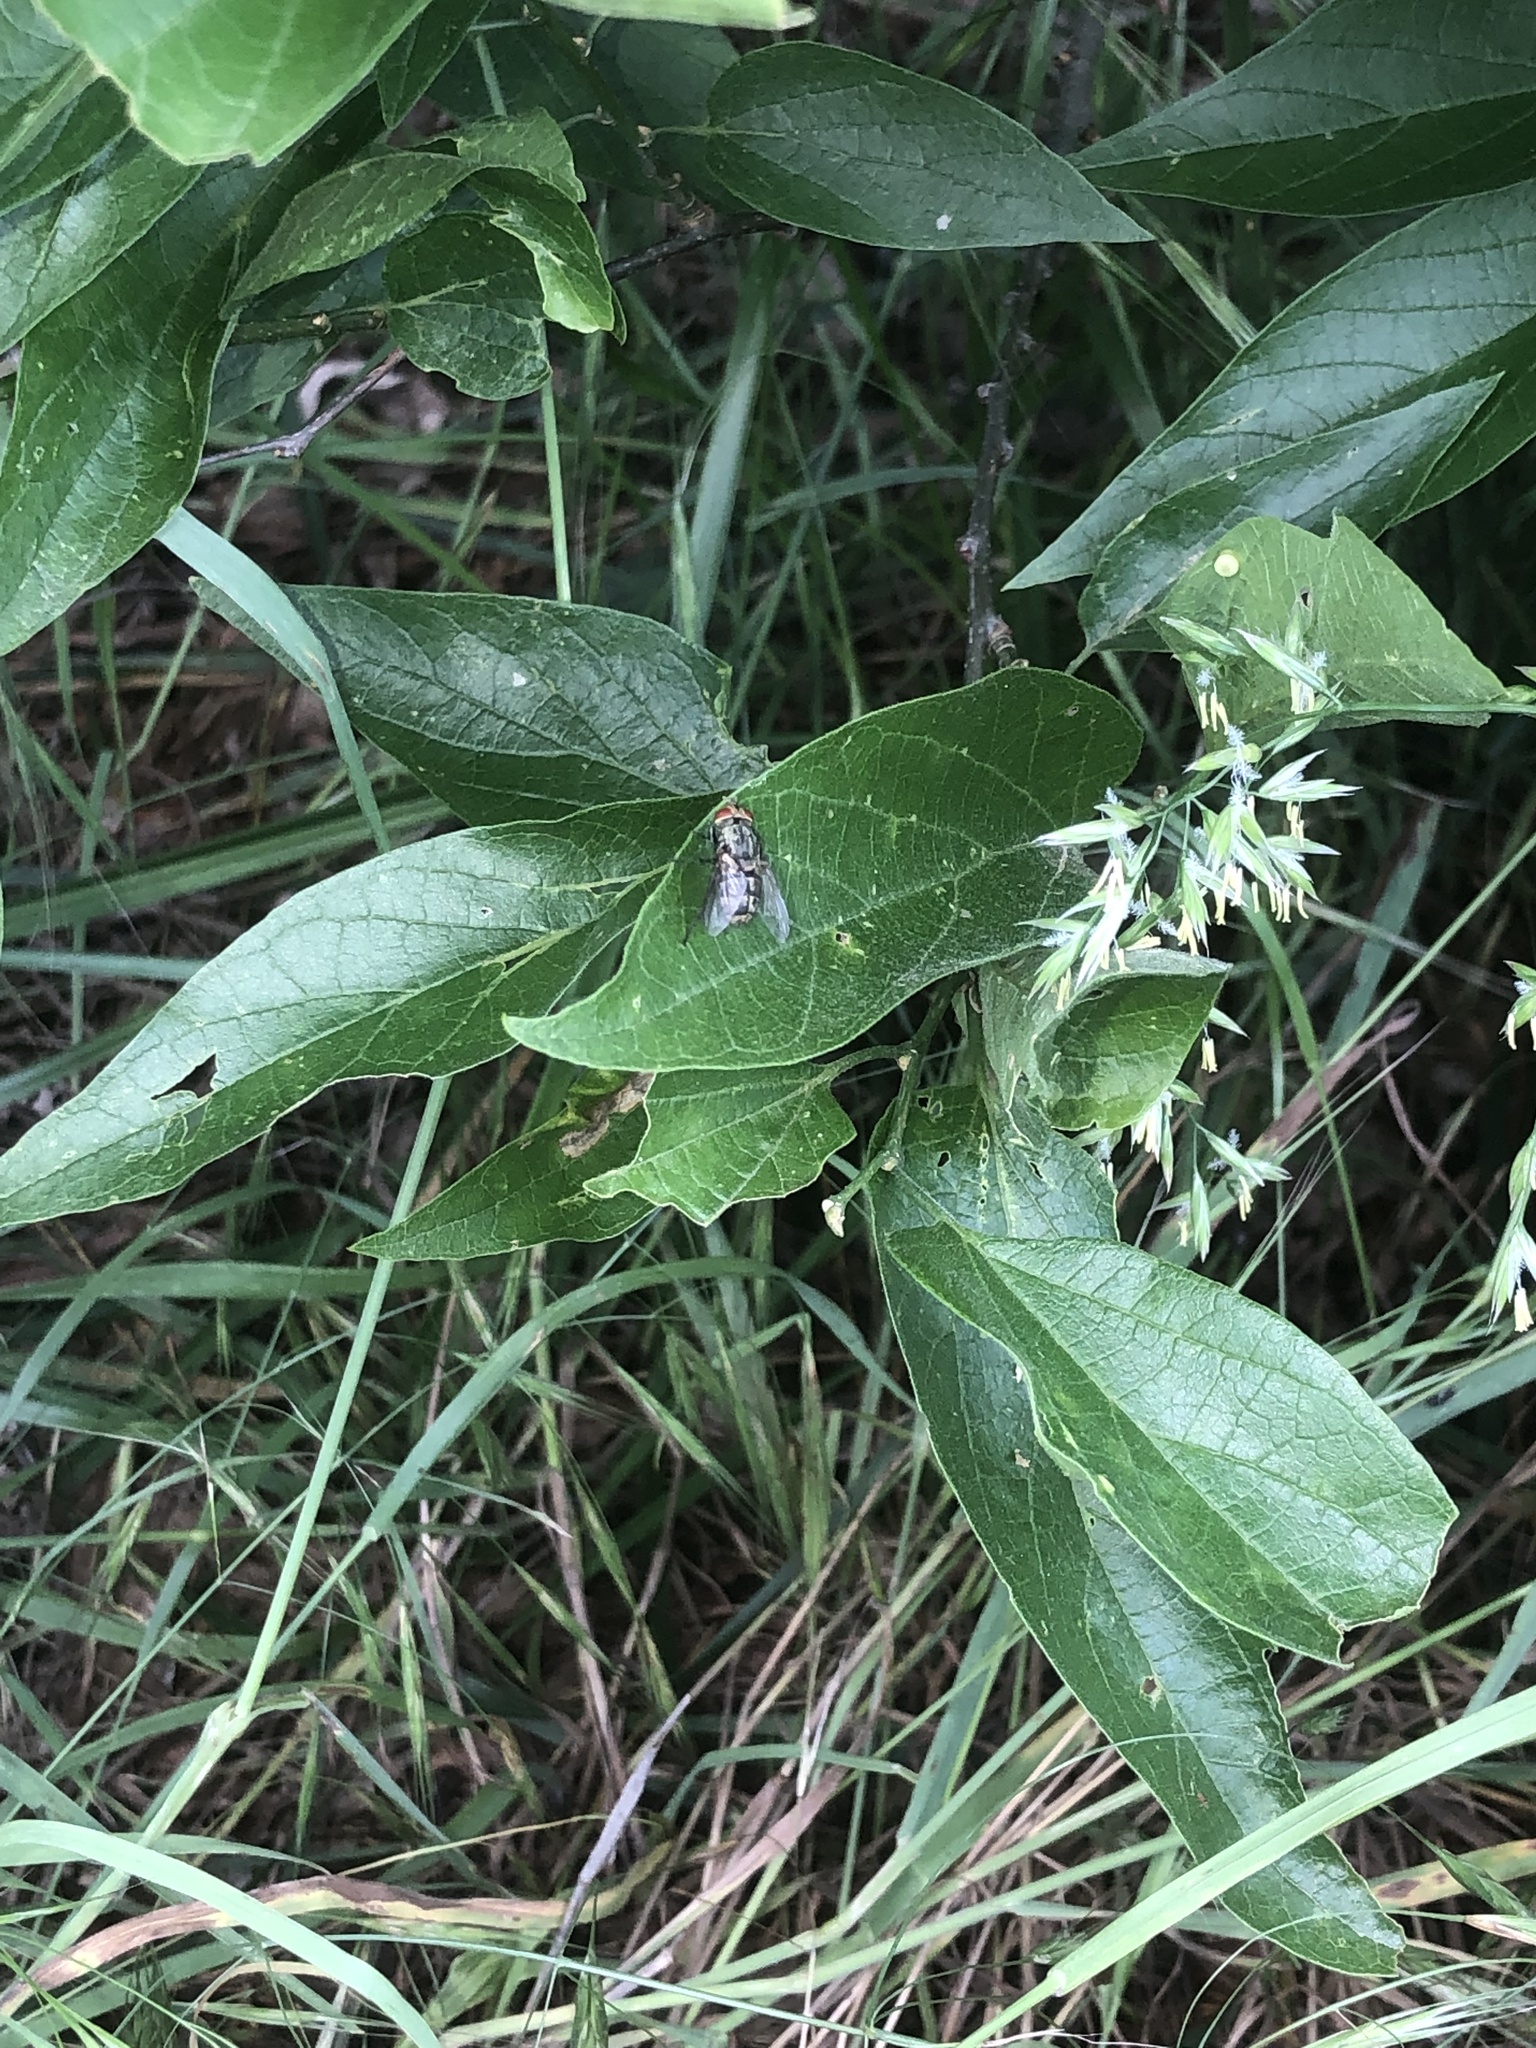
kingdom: Plantae
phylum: Tracheophyta
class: Magnoliopsida
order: Rosales
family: Cannabaceae
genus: Celtis
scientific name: Celtis laevigata
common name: Sugarberry
